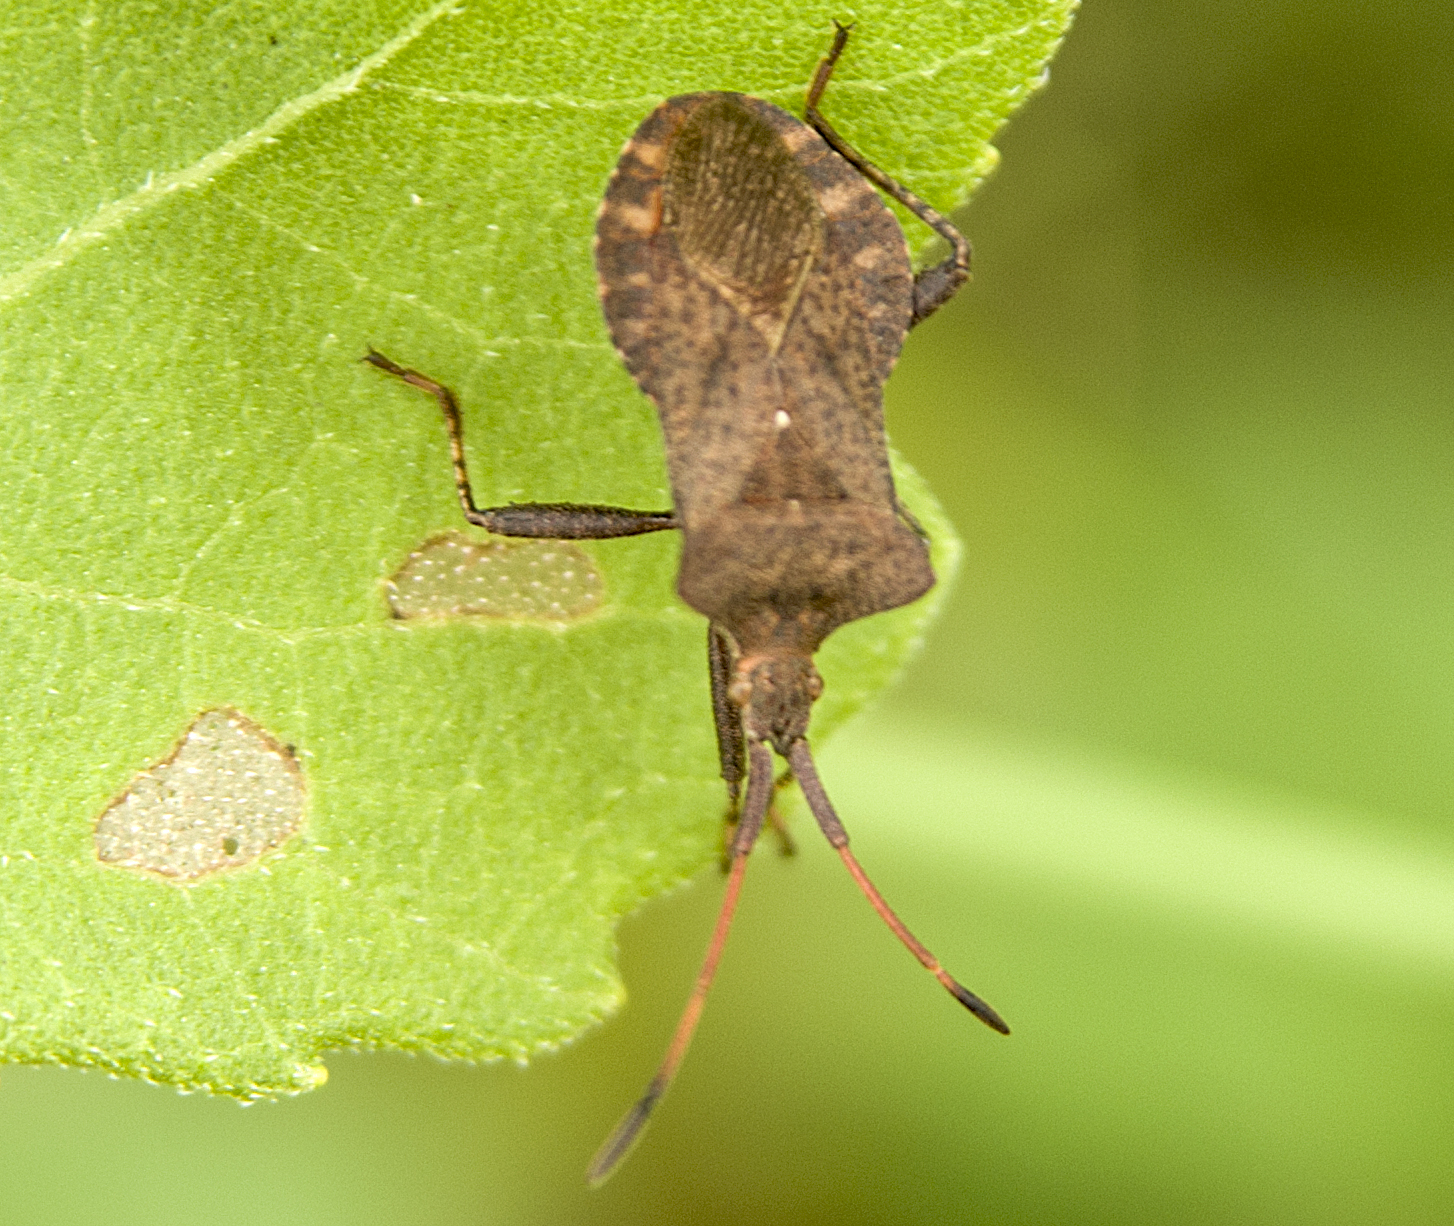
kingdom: Animalia
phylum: Arthropoda
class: Insecta
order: Hemiptera
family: Coreidae
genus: Coreus
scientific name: Coreus marginatus
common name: Dock bug
